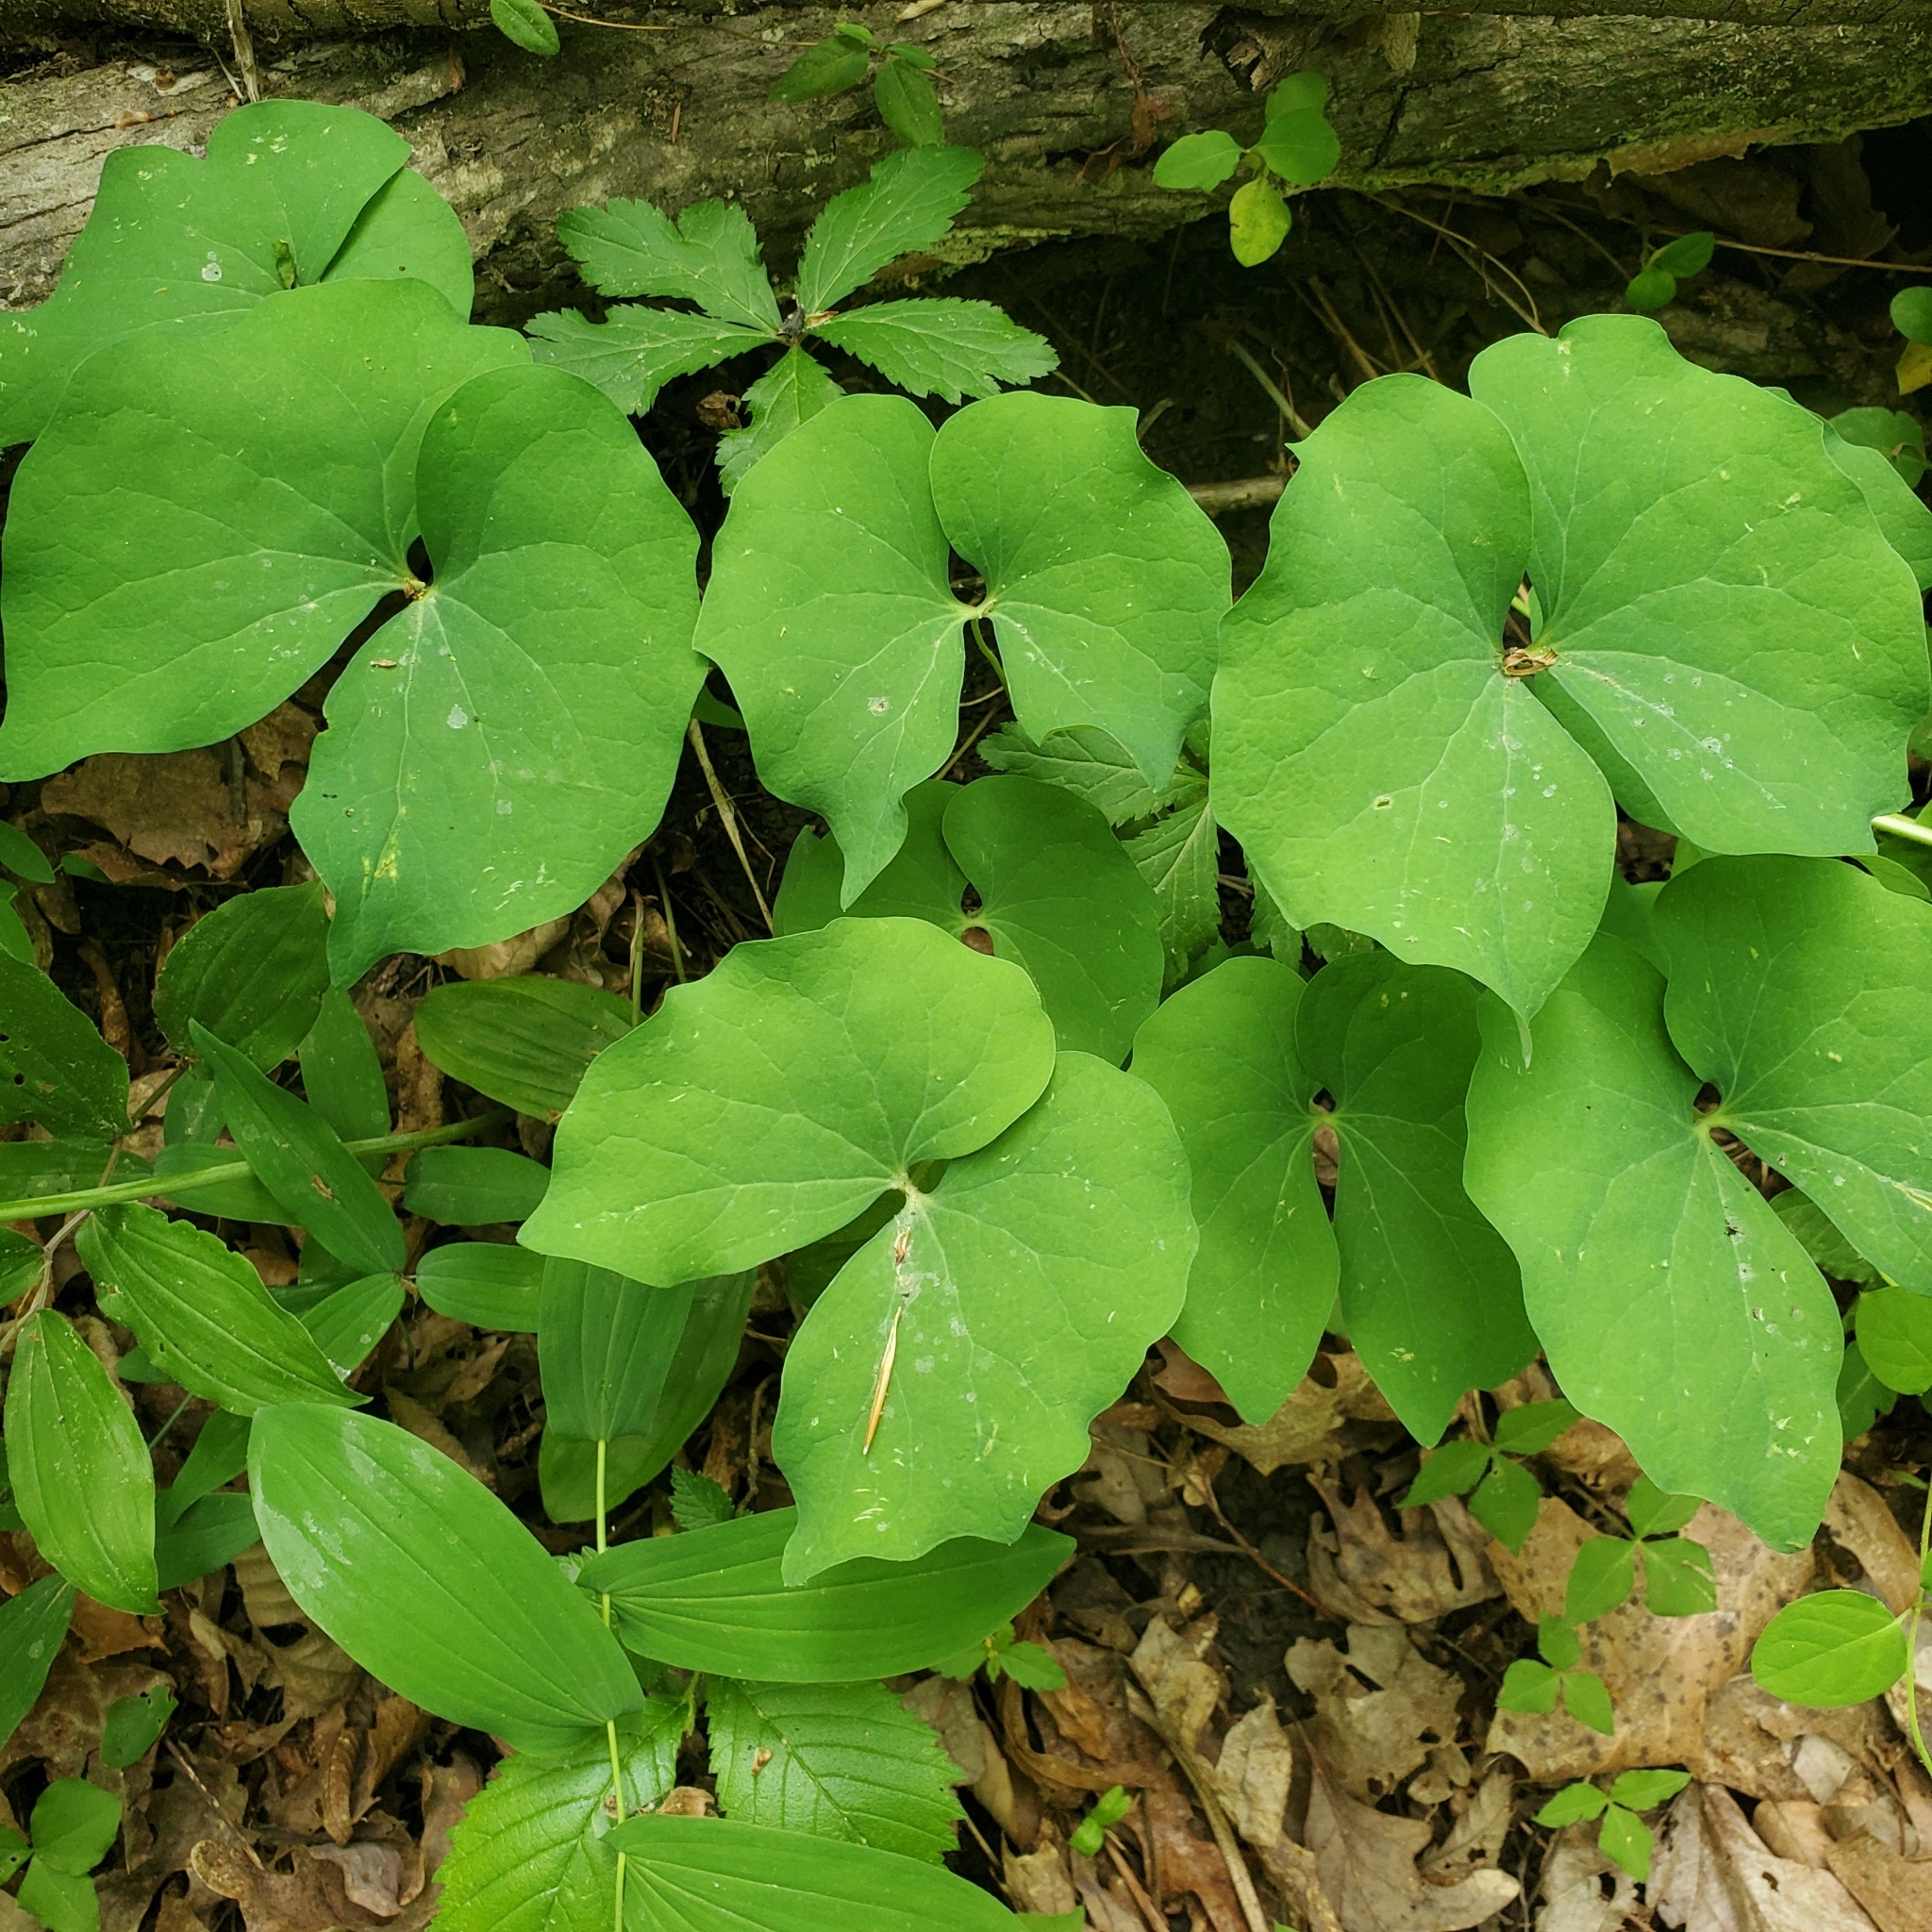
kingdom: Plantae
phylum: Tracheophyta
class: Magnoliopsida
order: Ranunculales
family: Berberidaceae
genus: Jeffersonia
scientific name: Jeffersonia diphylla
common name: Rheumatism-root
